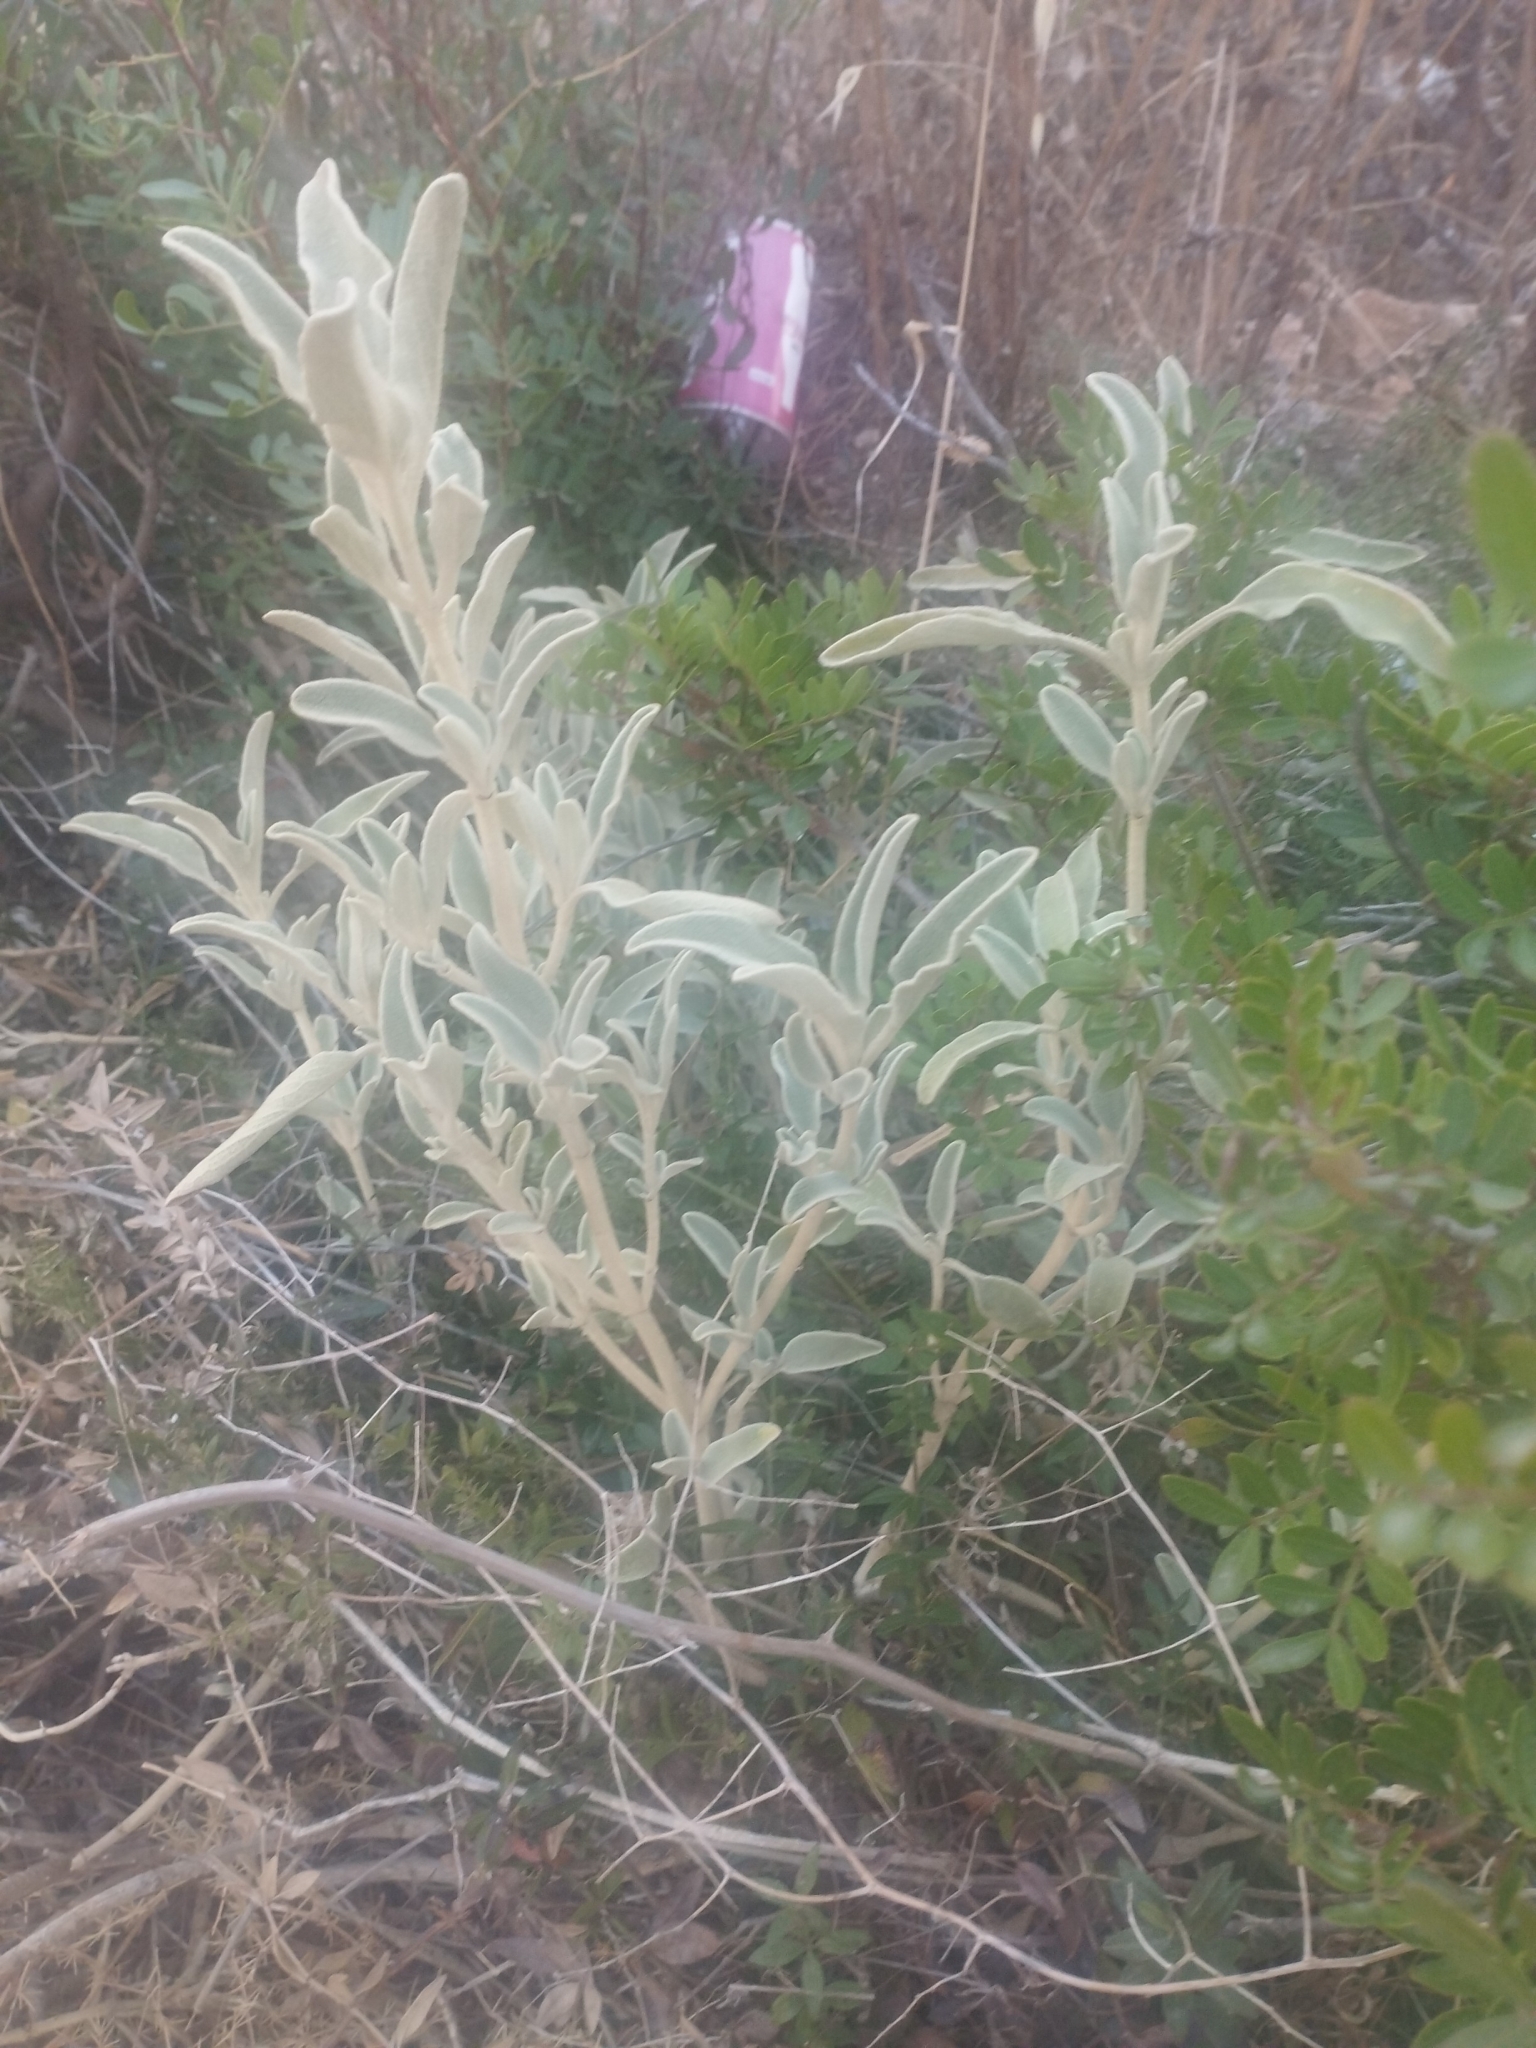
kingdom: Plantae
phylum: Tracheophyta
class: Magnoliopsida
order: Lamiales
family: Lamiaceae
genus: Phlomis
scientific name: Phlomis fruticosa
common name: Jerusalem sage
